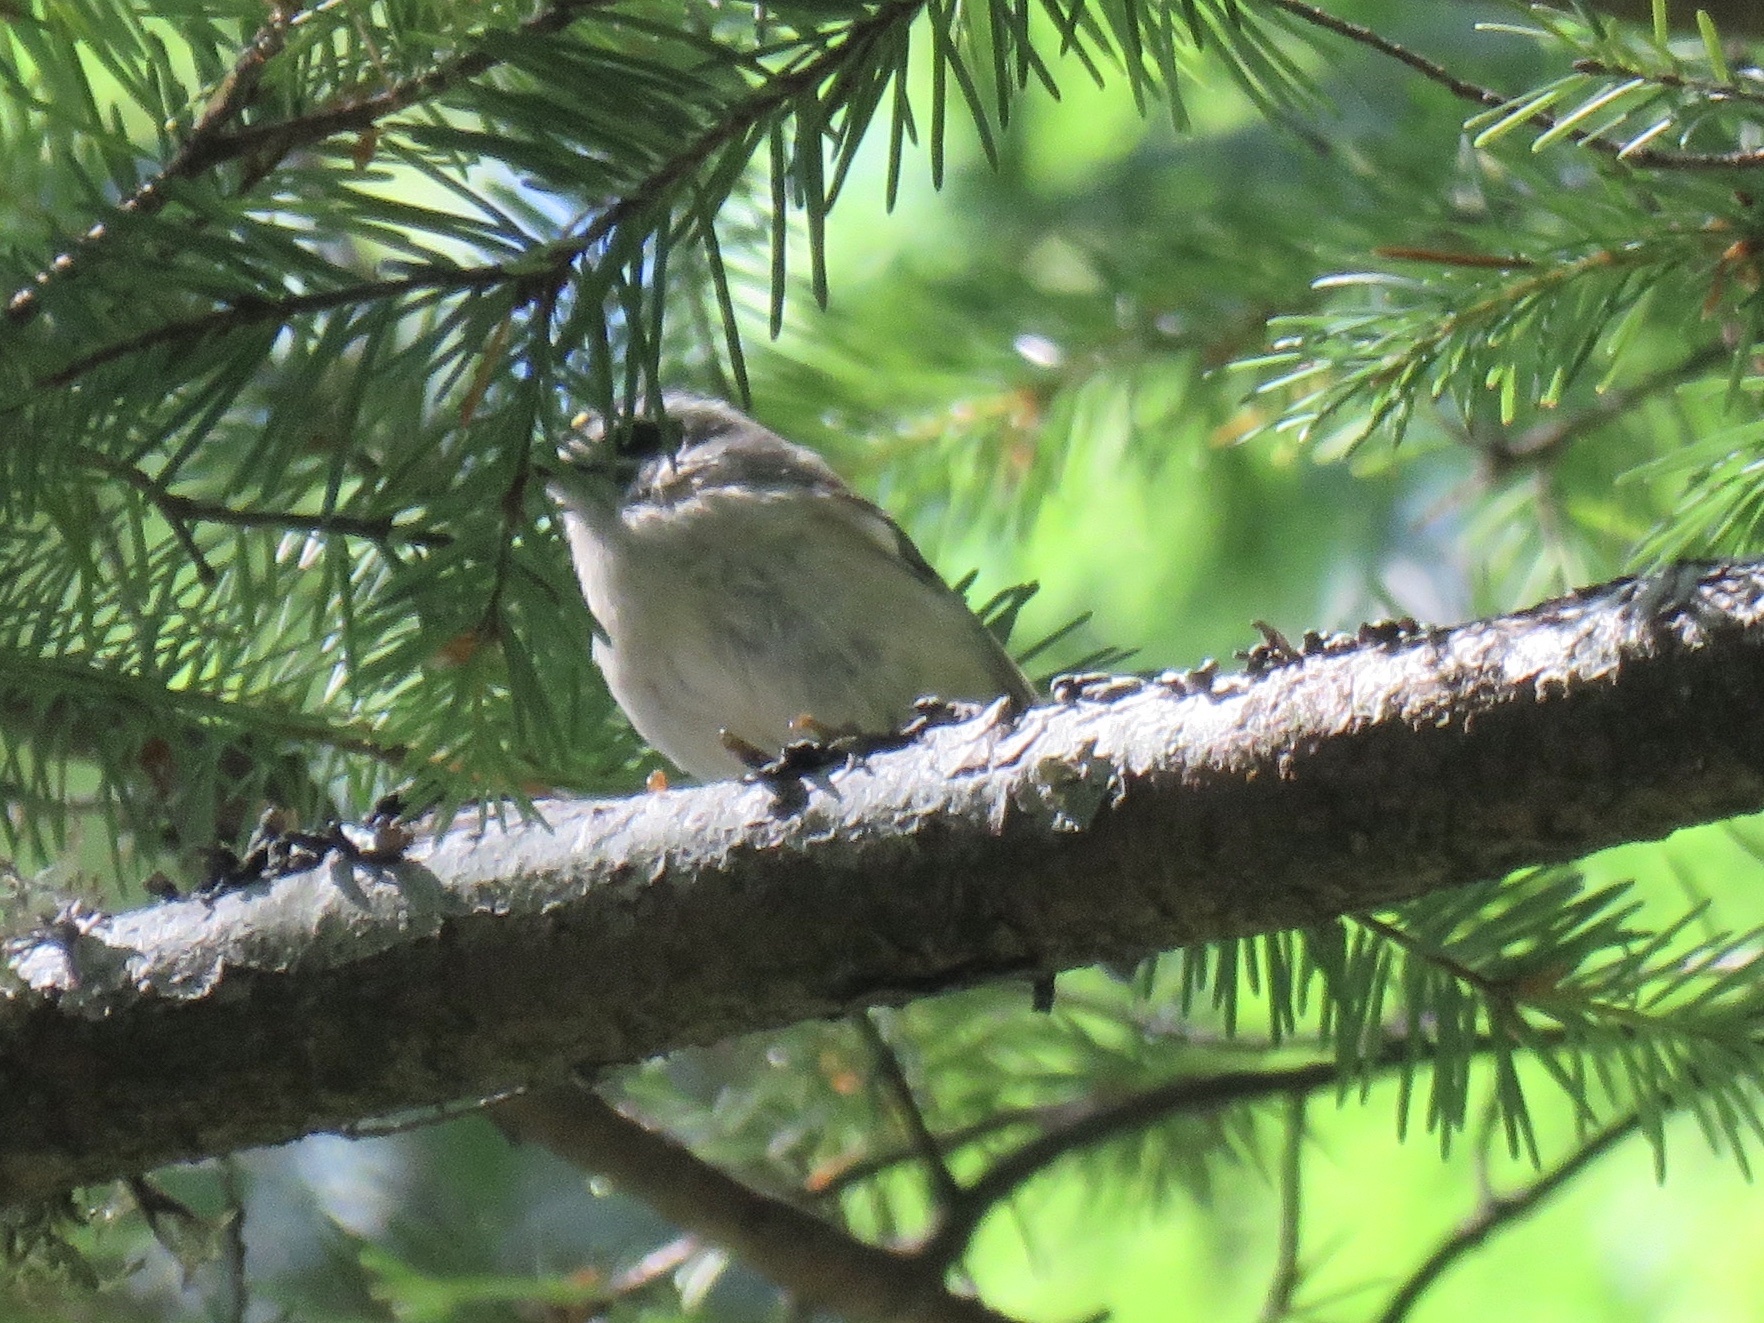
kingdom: Animalia
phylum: Chordata
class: Aves
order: Passeriformes
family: Regulidae
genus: Regulus
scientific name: Regulus satrapa
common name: Golden-crowned kinglet
